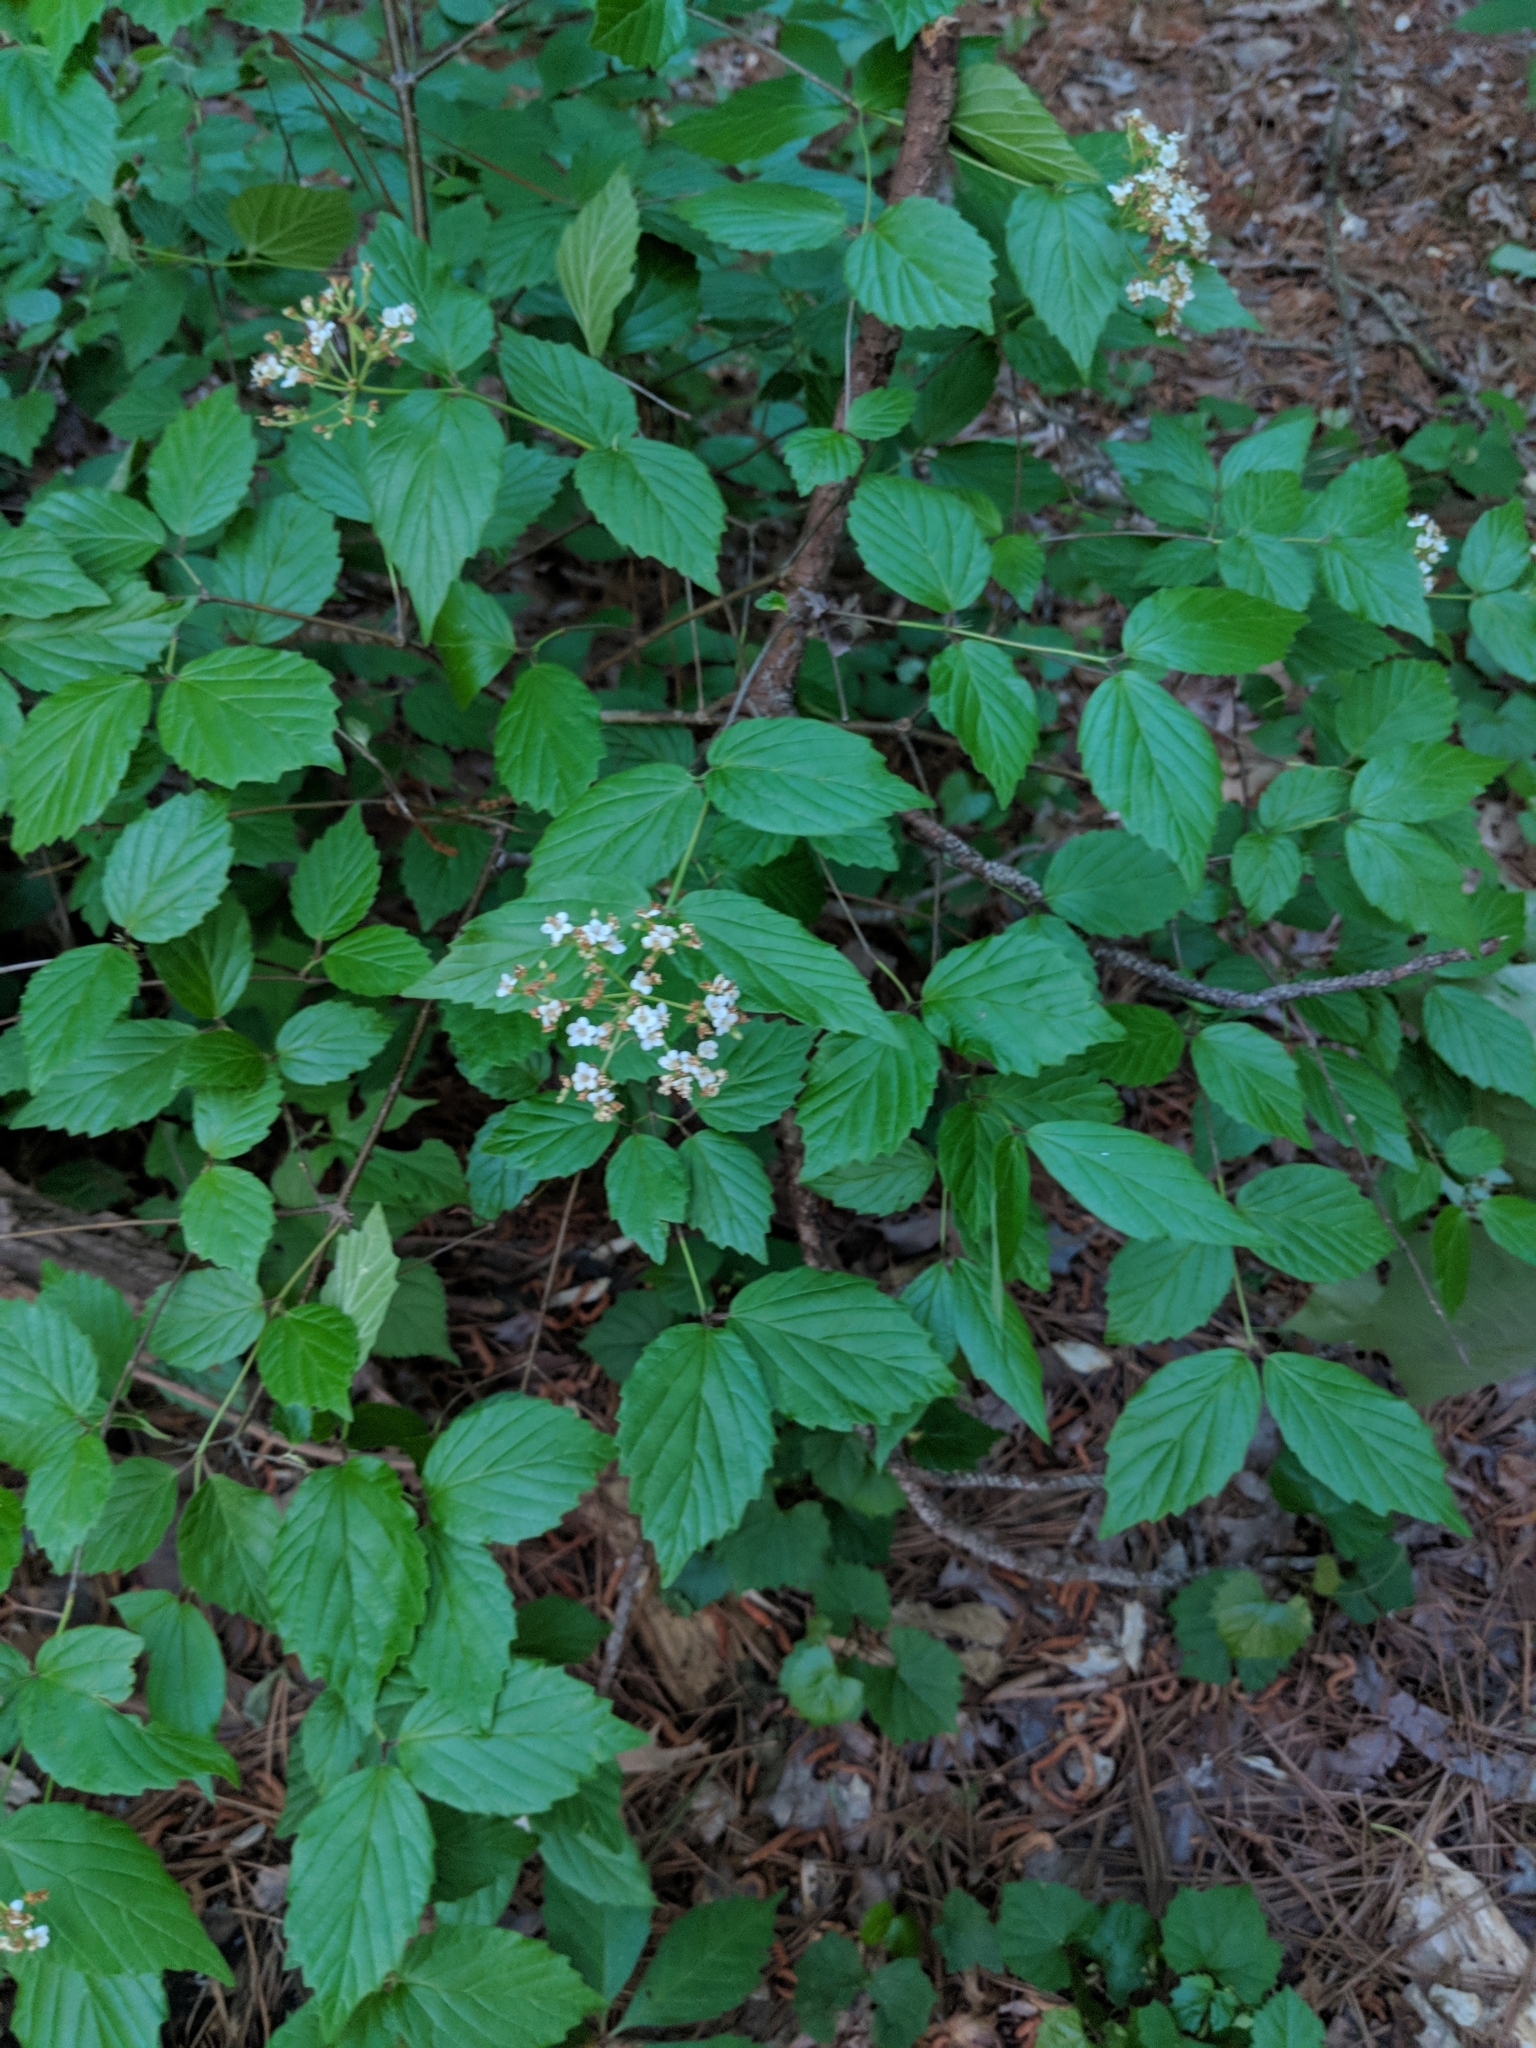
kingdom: Plantae
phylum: Tracheophyta
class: Magnoliopsida
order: Dipsacales
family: Viburnaceae
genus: Viburnum
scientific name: Viburnum rafinesqueanum
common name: Downy arrow-wood
